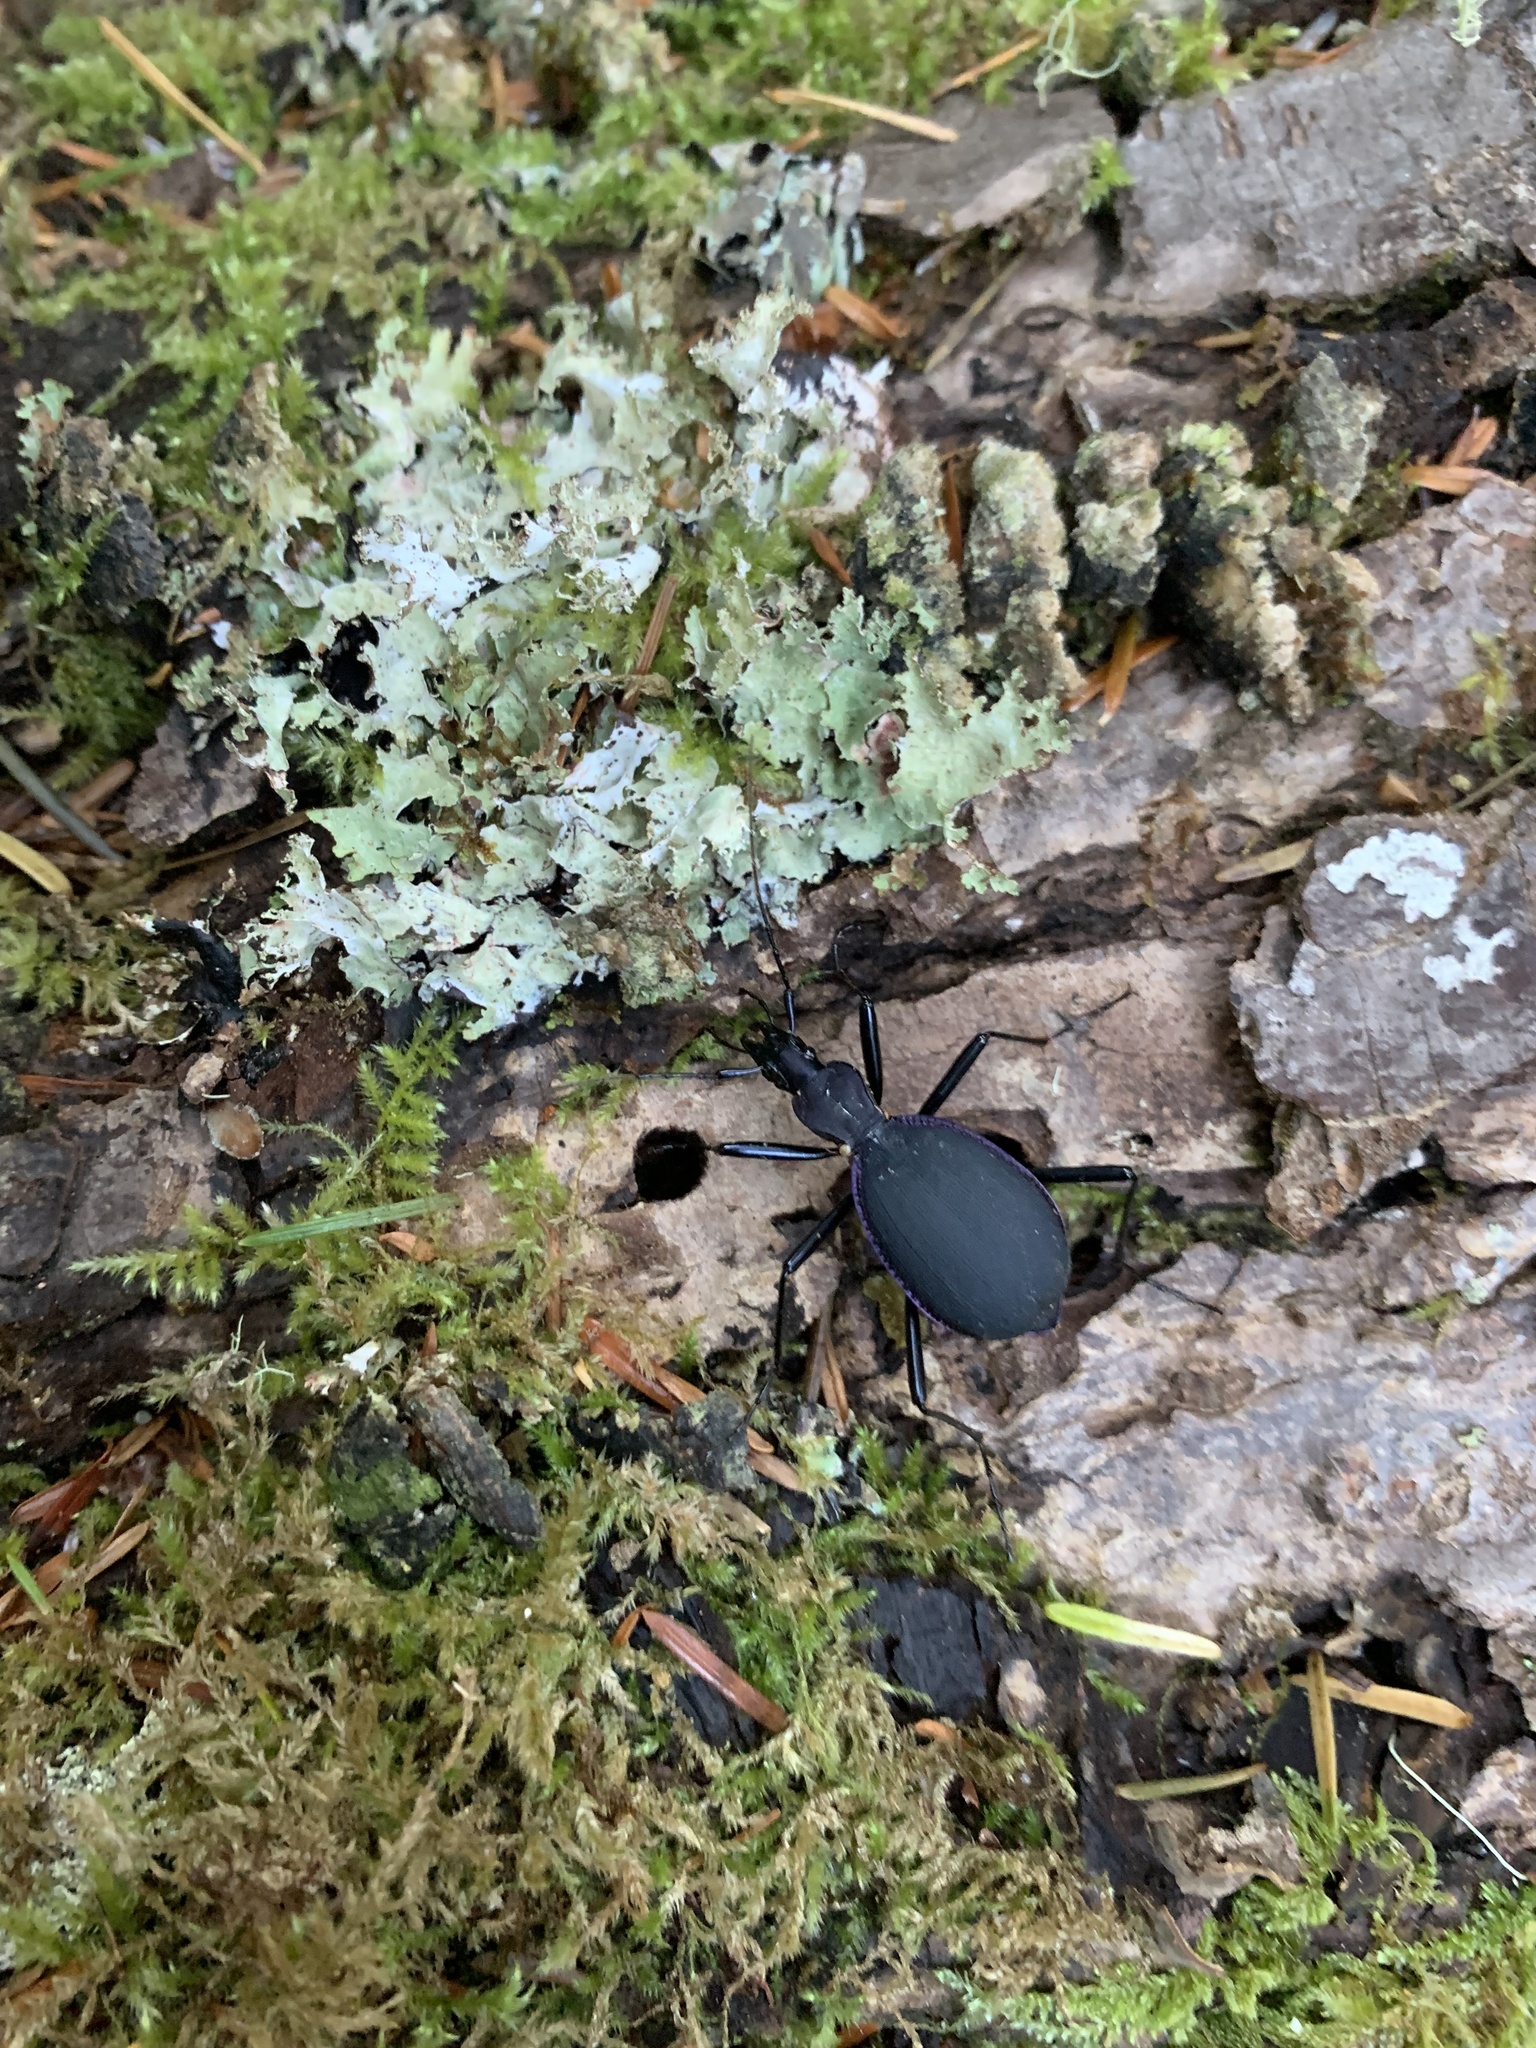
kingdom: Animalia
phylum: Arthropoda
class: Insecta
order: Coleoptera
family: Carabidae
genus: Scaphinotus
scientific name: Scaphinotus velutinus
